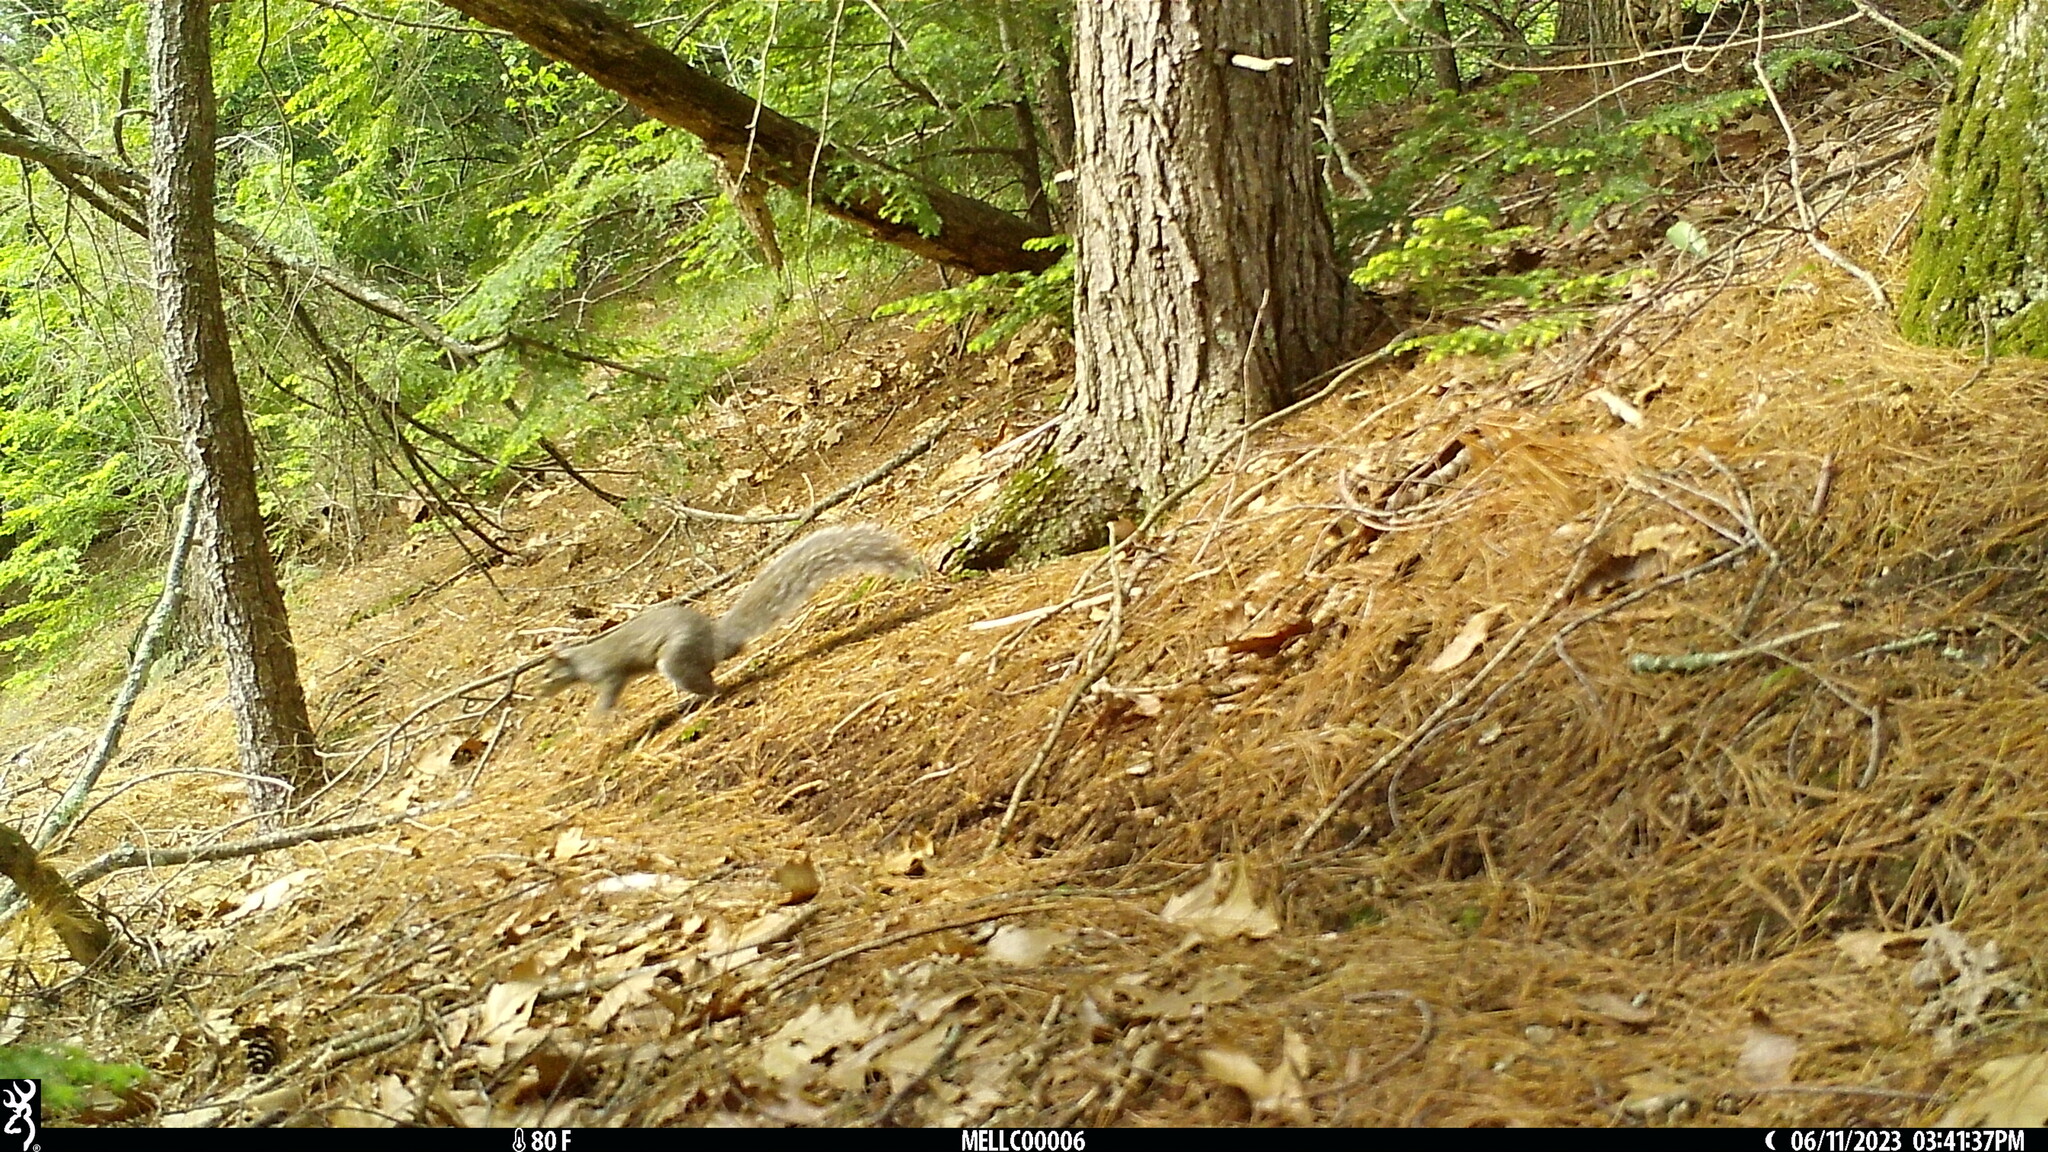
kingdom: Animalia
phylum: Chordata
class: Mammalia
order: Rodentia
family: Sciuridae
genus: Sciurus
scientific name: Sciurus carolinensis
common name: Eastern gray squirrel
